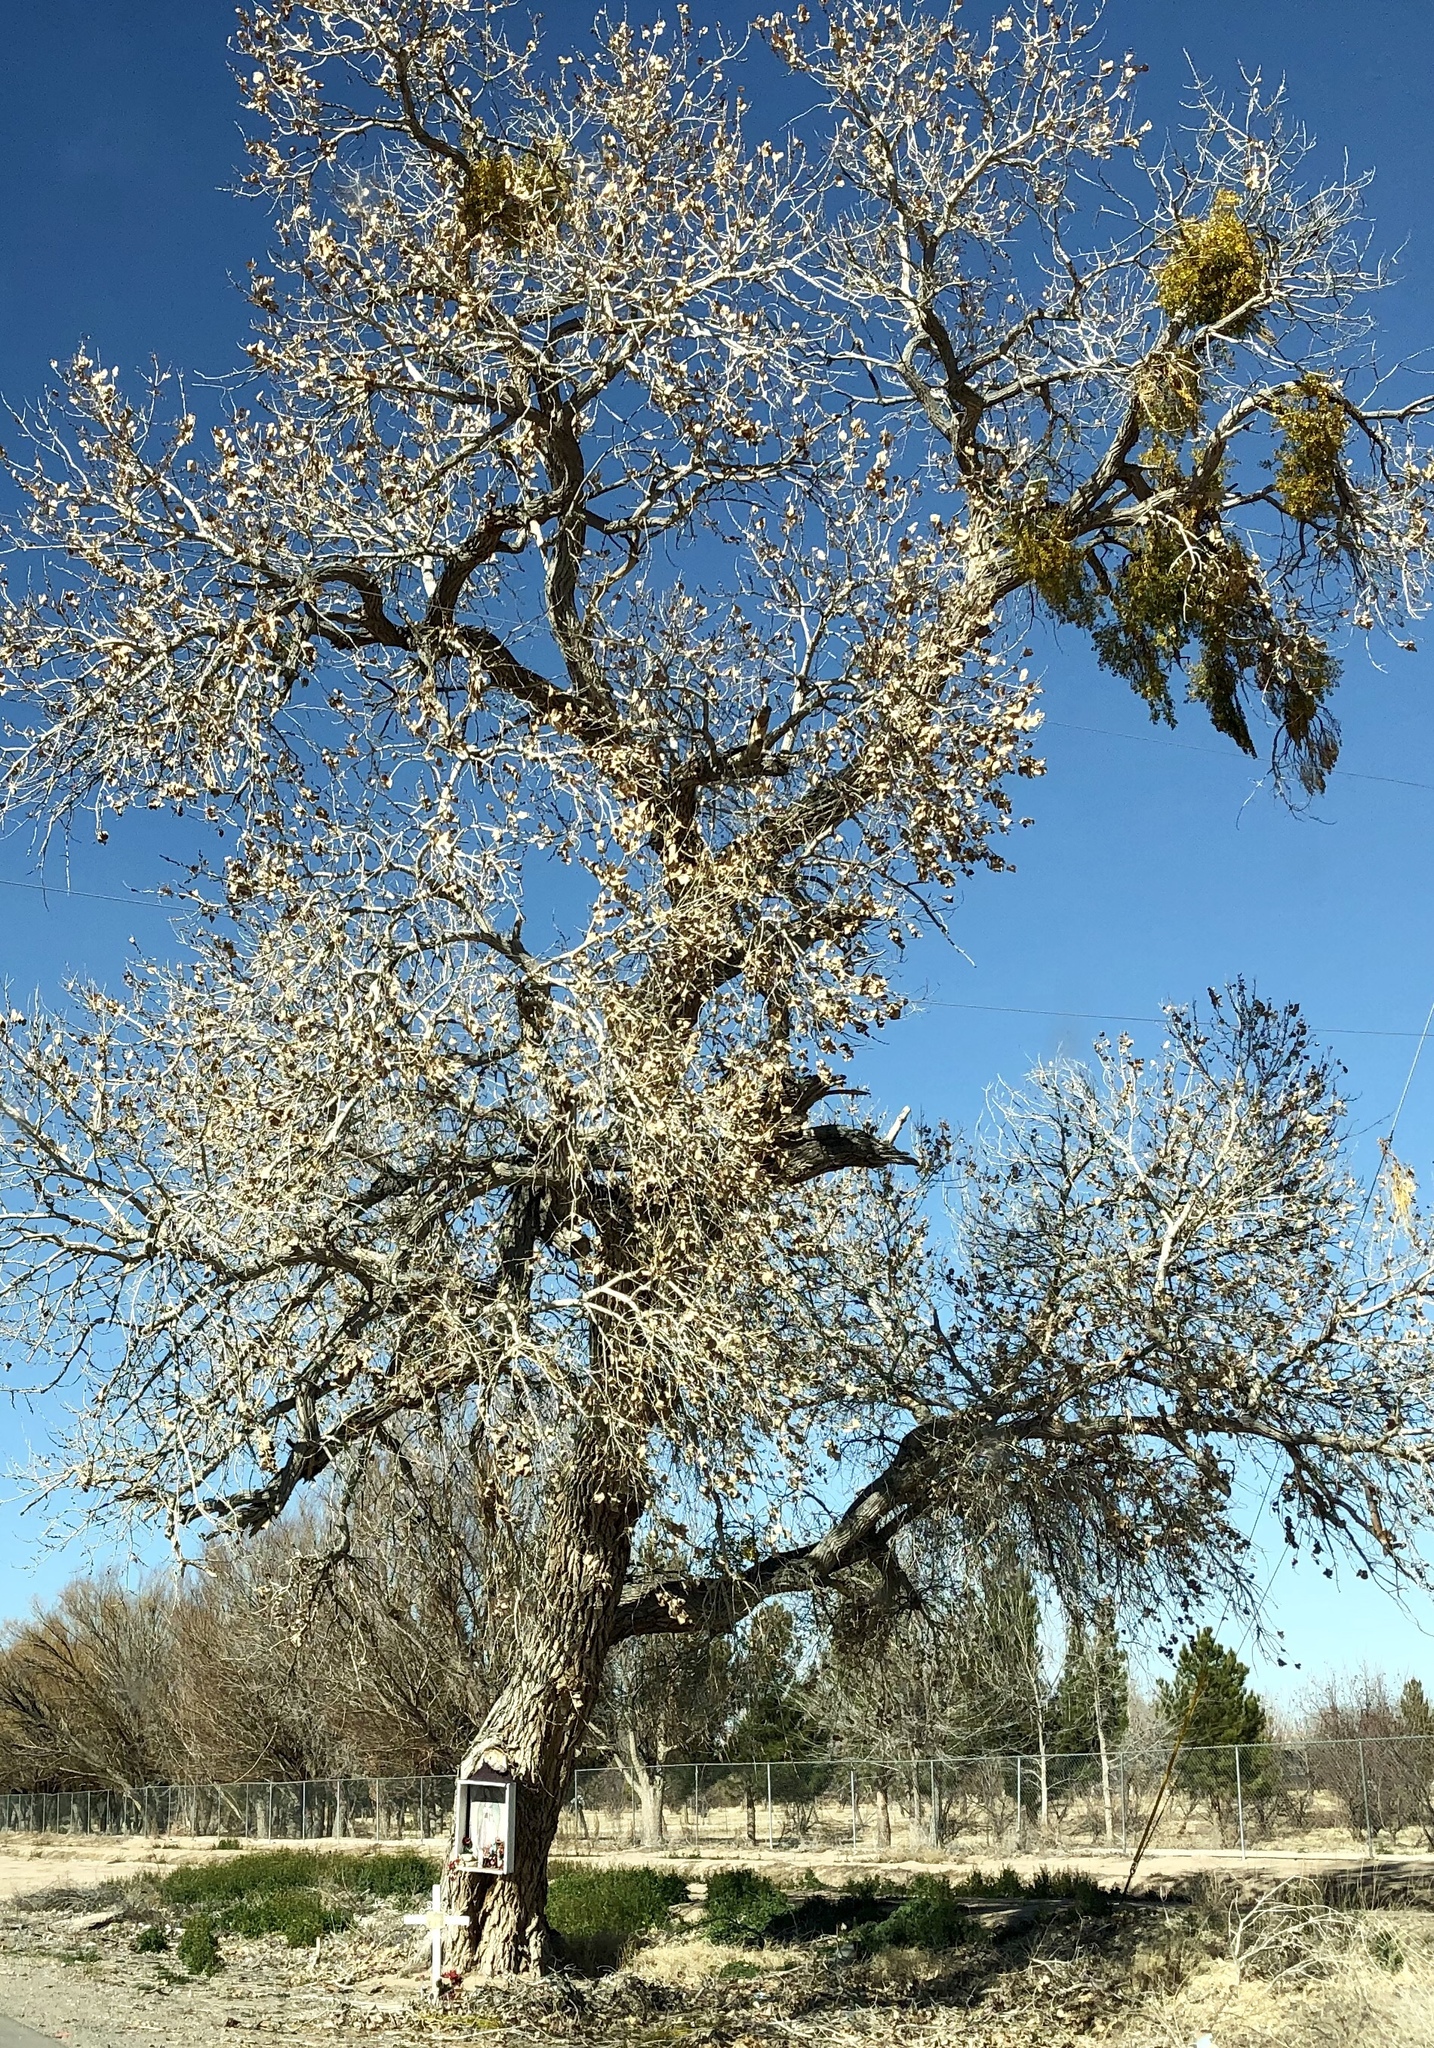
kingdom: Plantae
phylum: Tracheophyta
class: Magnoliopsida
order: Malpighiales
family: Salicaceae
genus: Populus
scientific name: Populus deltoides
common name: Eastern cottonwood
